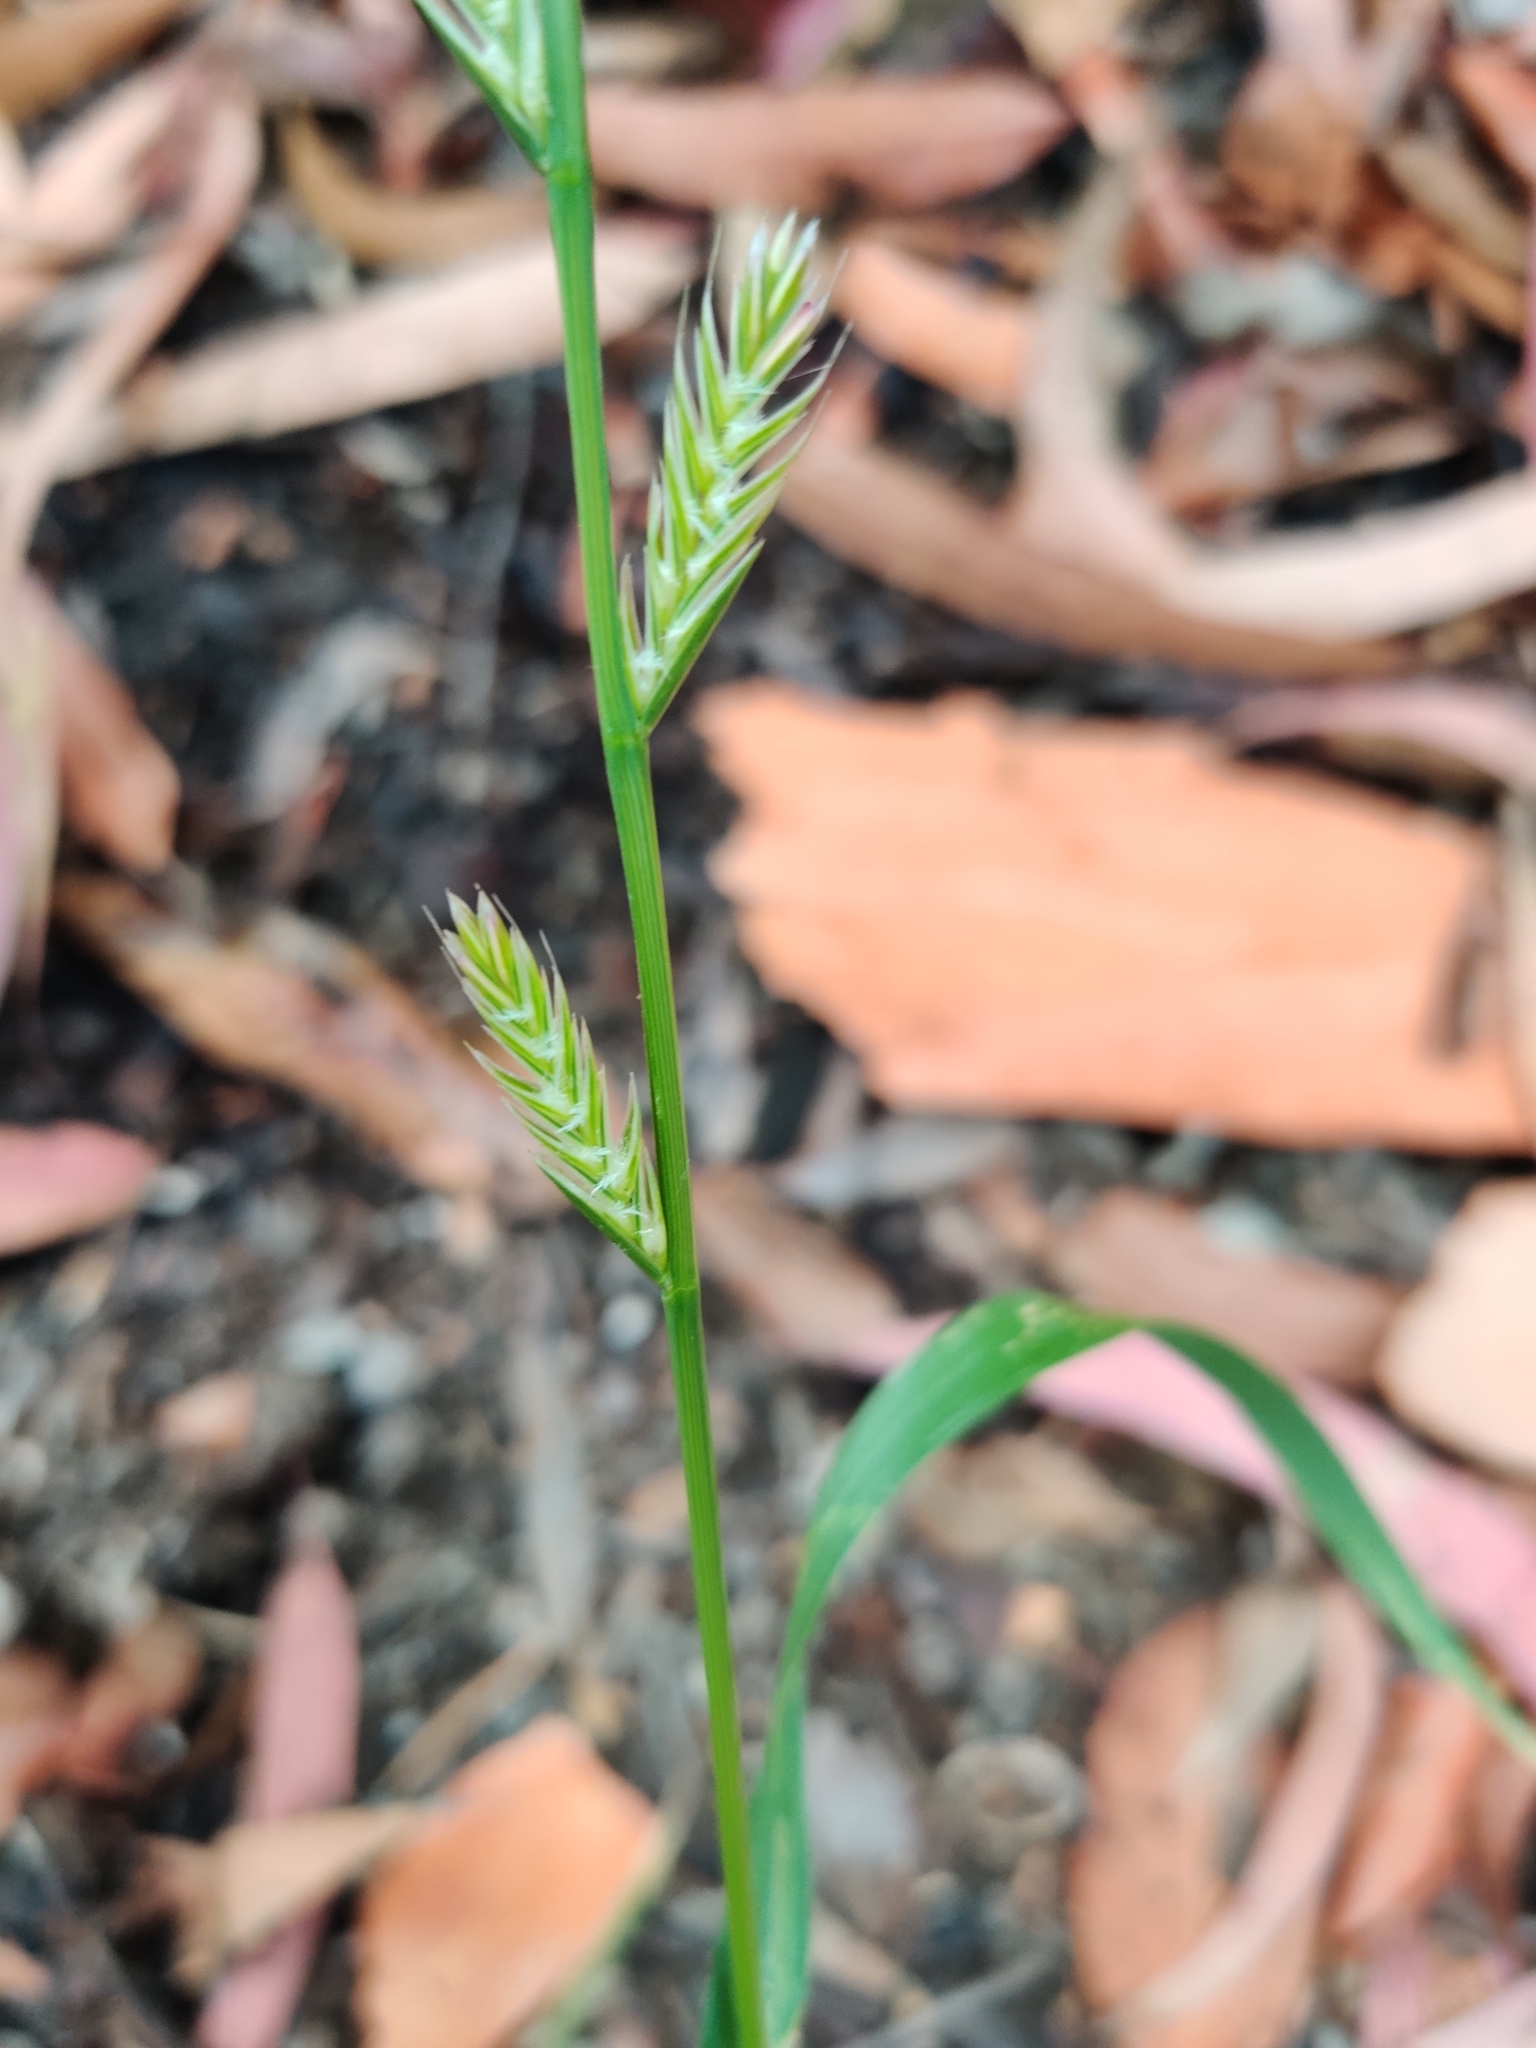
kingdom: Plantae
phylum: Tracheophyta
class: Liliopsida
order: Poales
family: Poaceae
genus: Lolium
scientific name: Lolium perenne
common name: Perennial ryegrass
